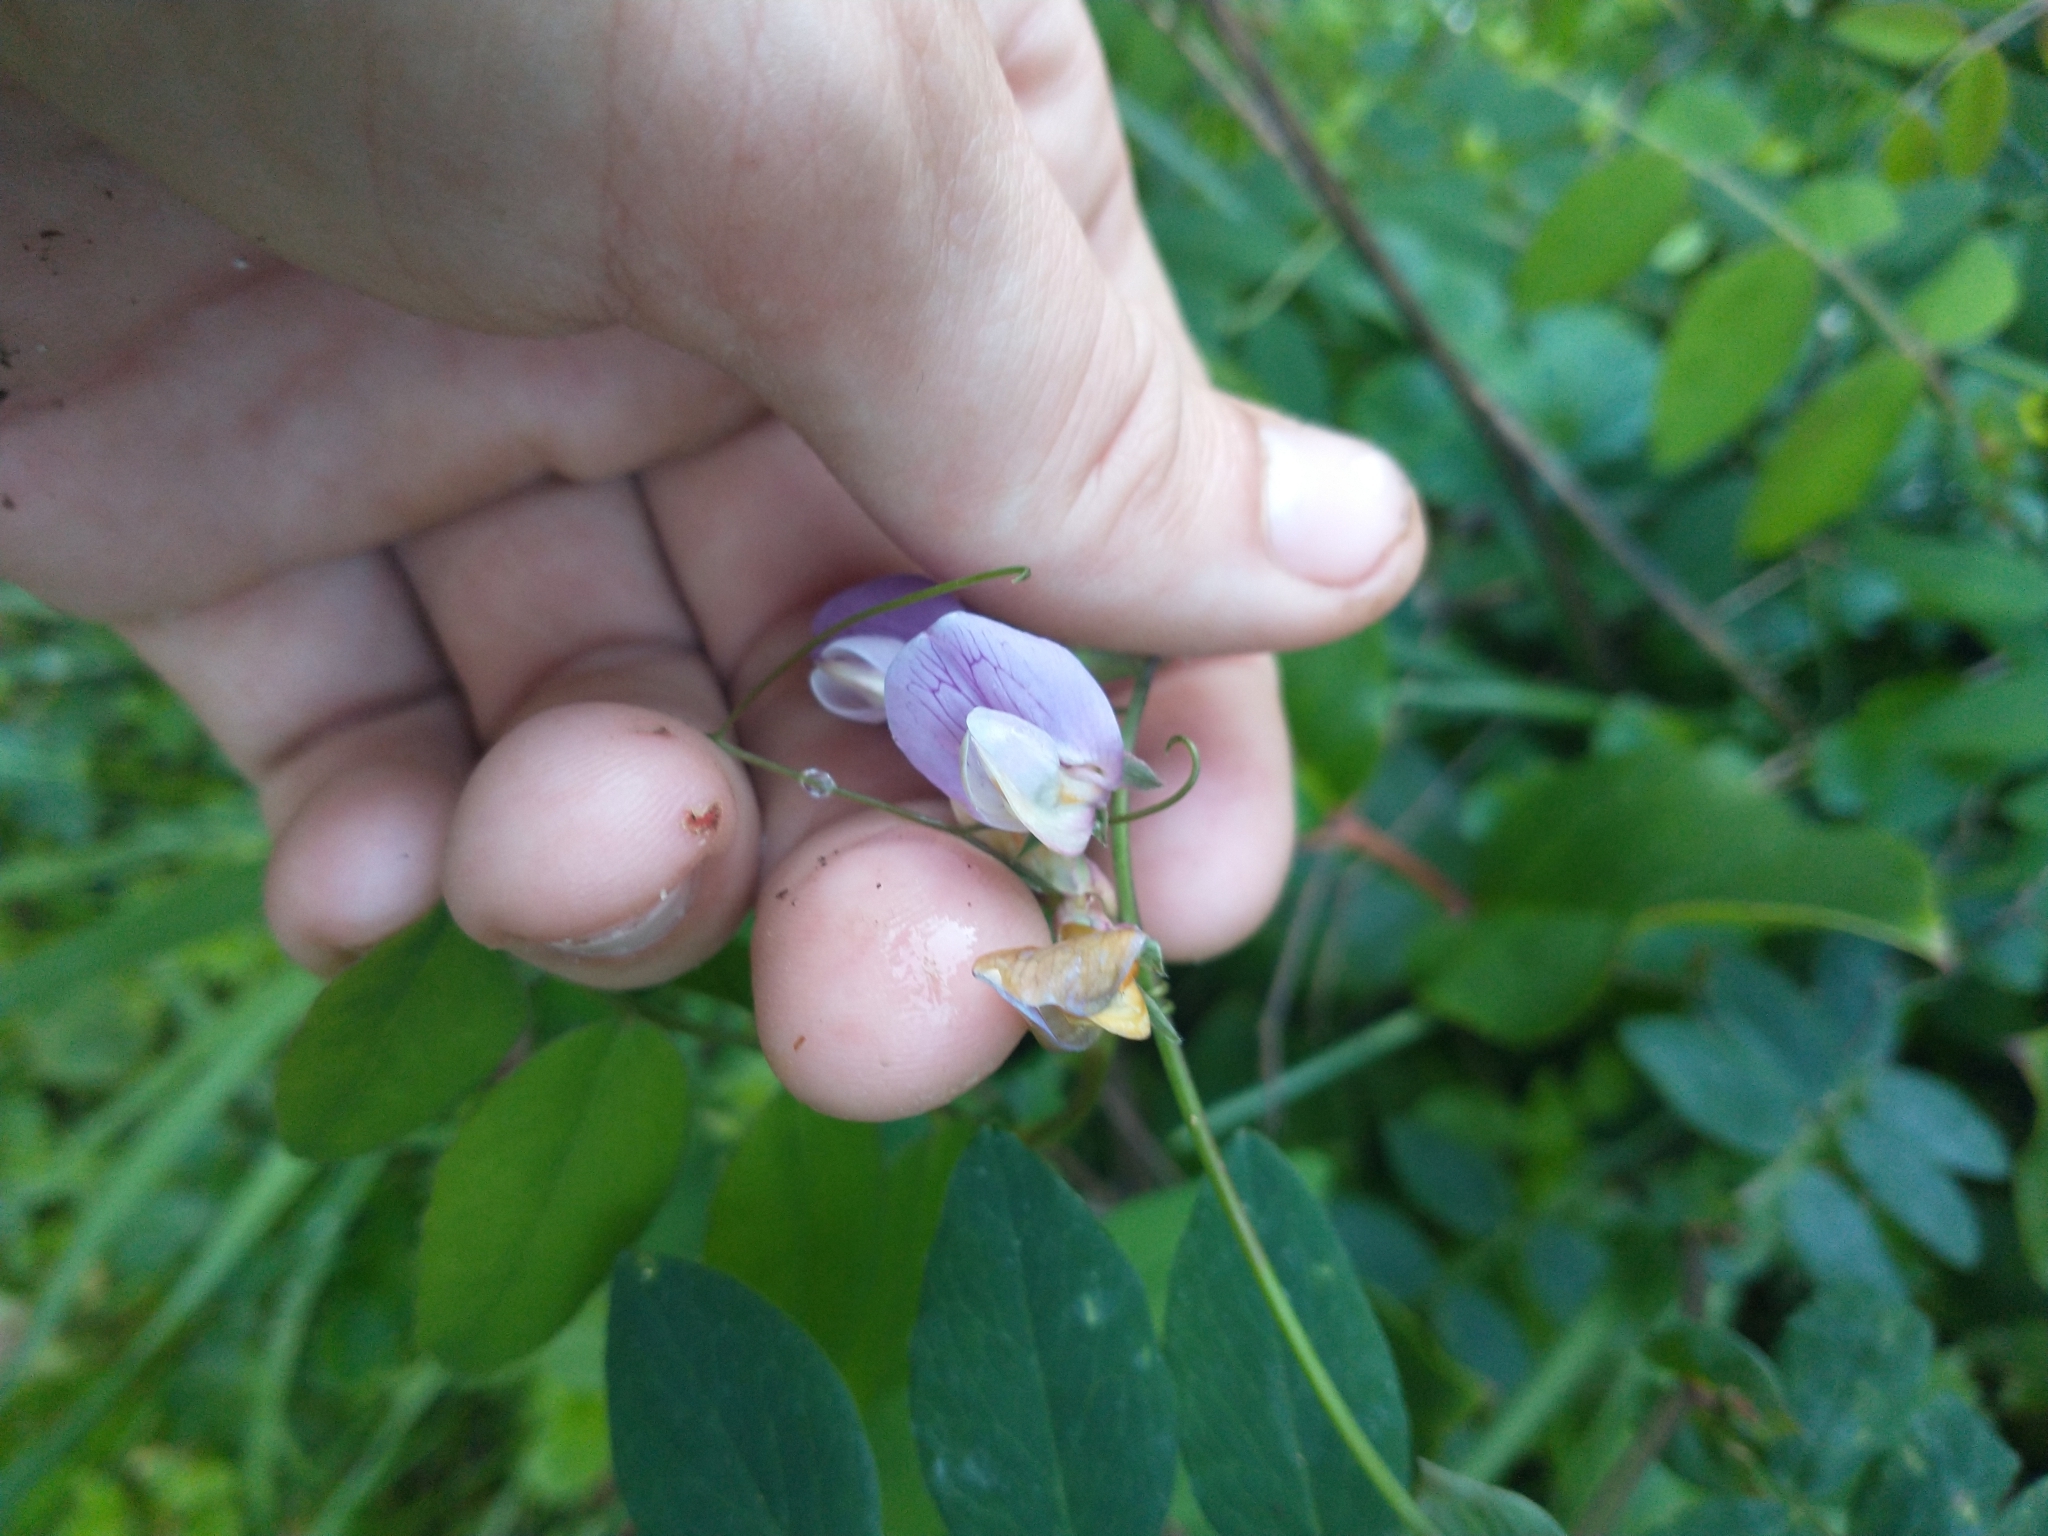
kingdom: Plantae
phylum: Tracheophyta
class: Magnoliopsida
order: Fabales
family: Fabaceae
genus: Lathyrus
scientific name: Lathyrus vestitus
